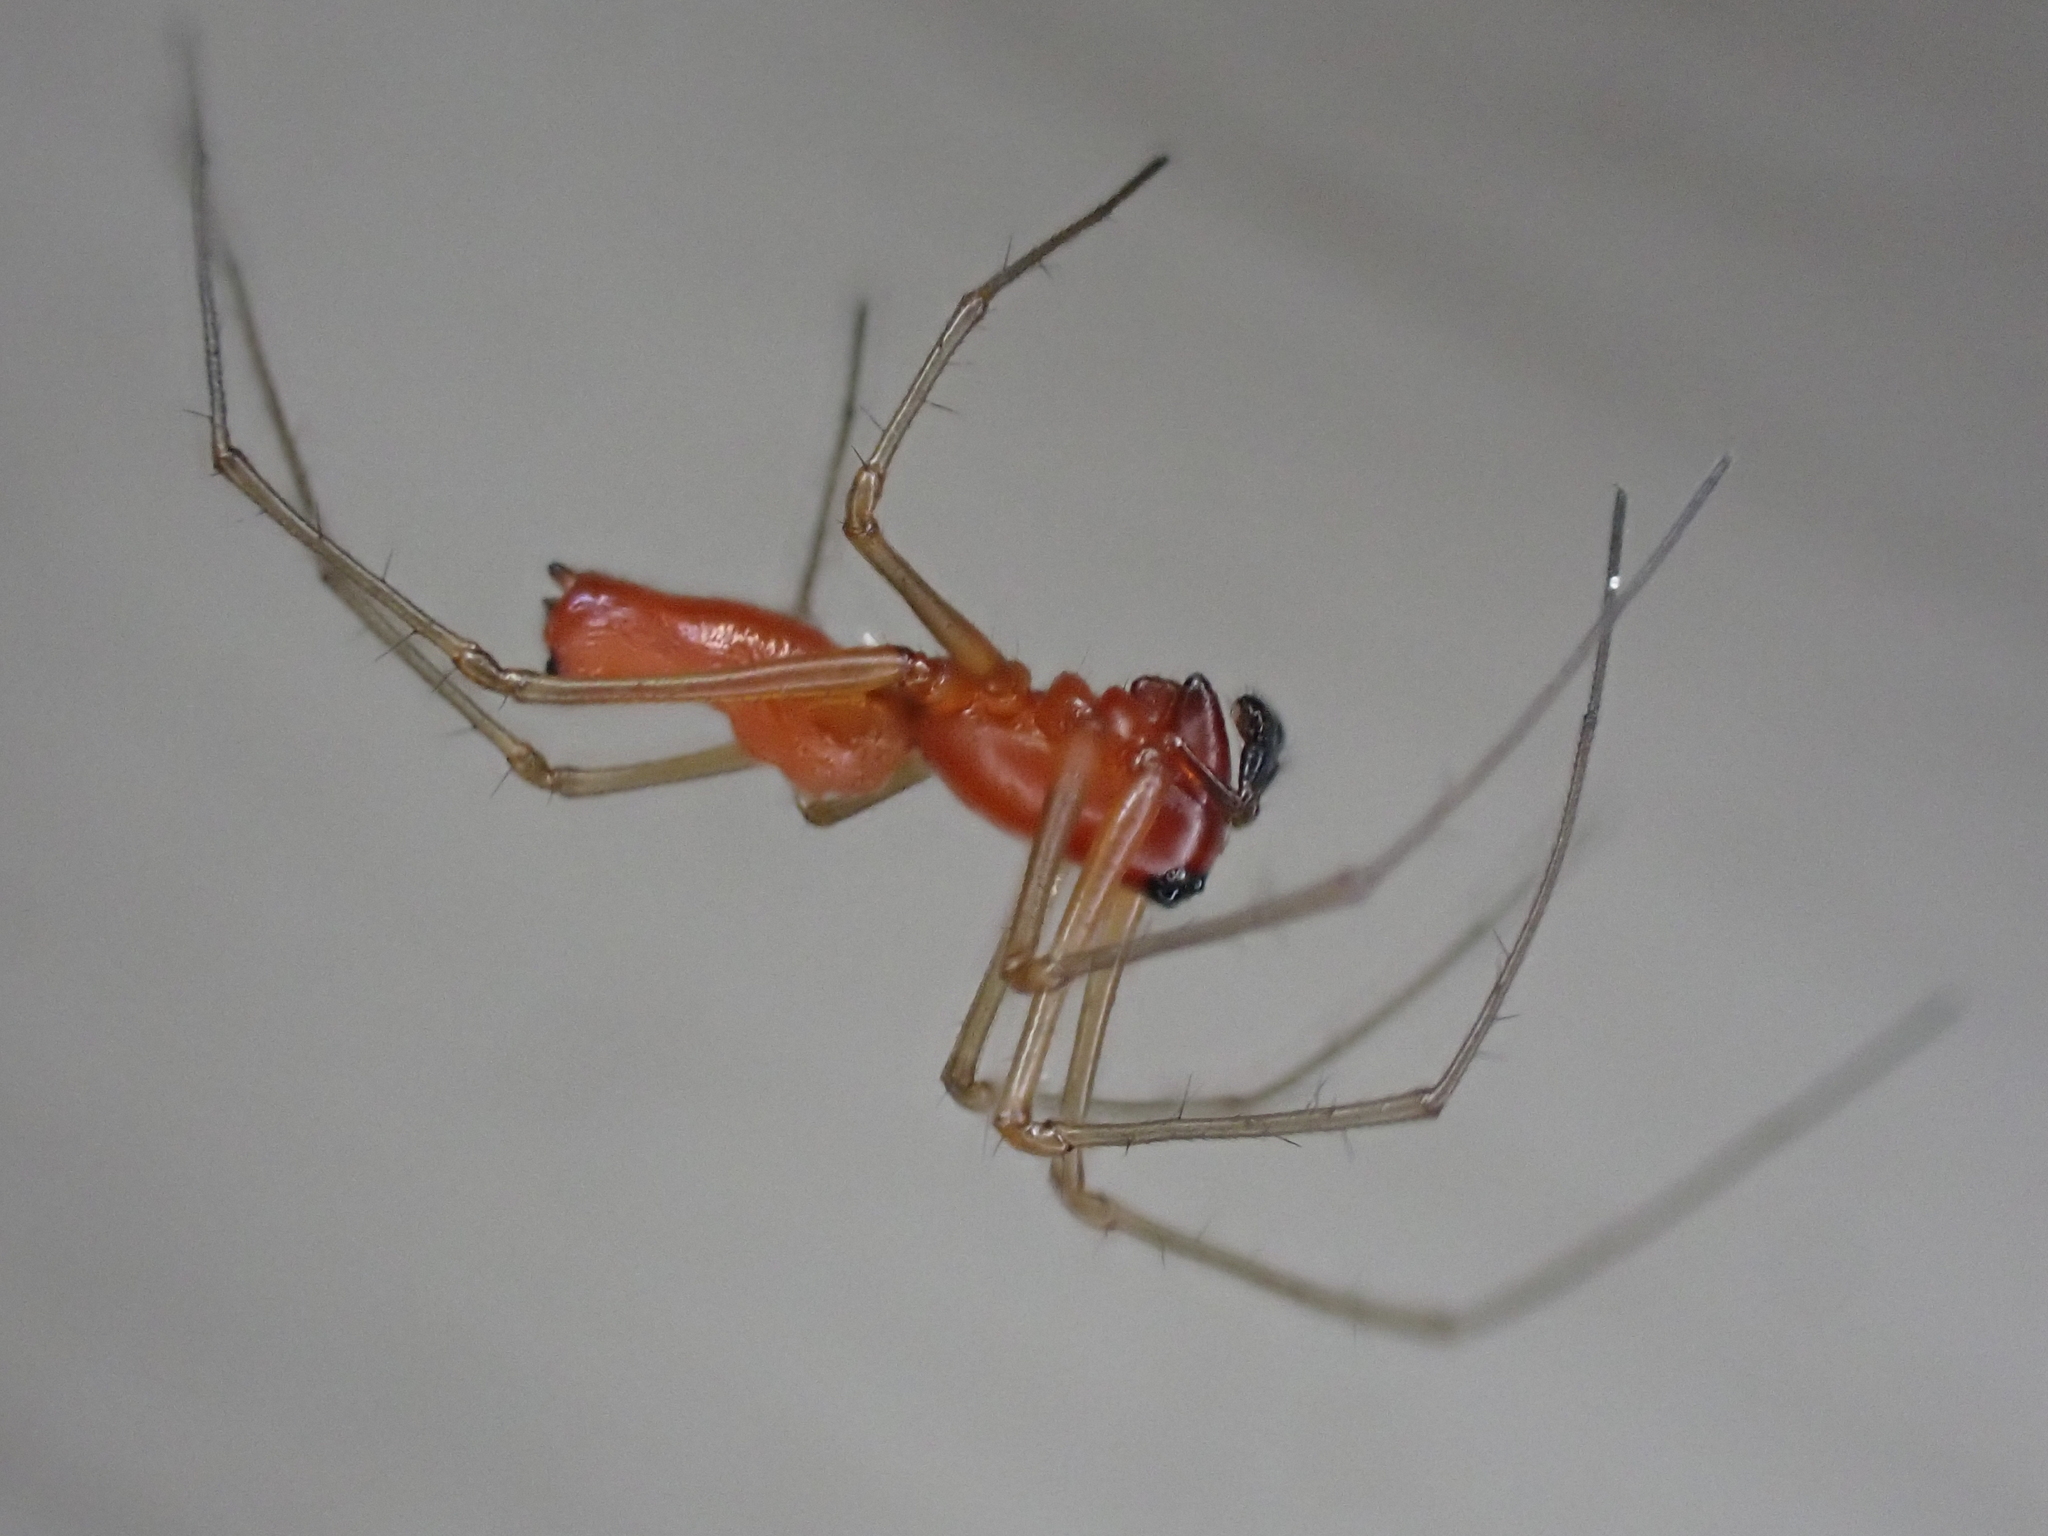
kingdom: Animalia
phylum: Arthropoda
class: Arachnida
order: Araneae
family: Linyphiidae
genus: Florinda
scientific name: Florinda coccinea
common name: Black-tailed red sheetweaver
